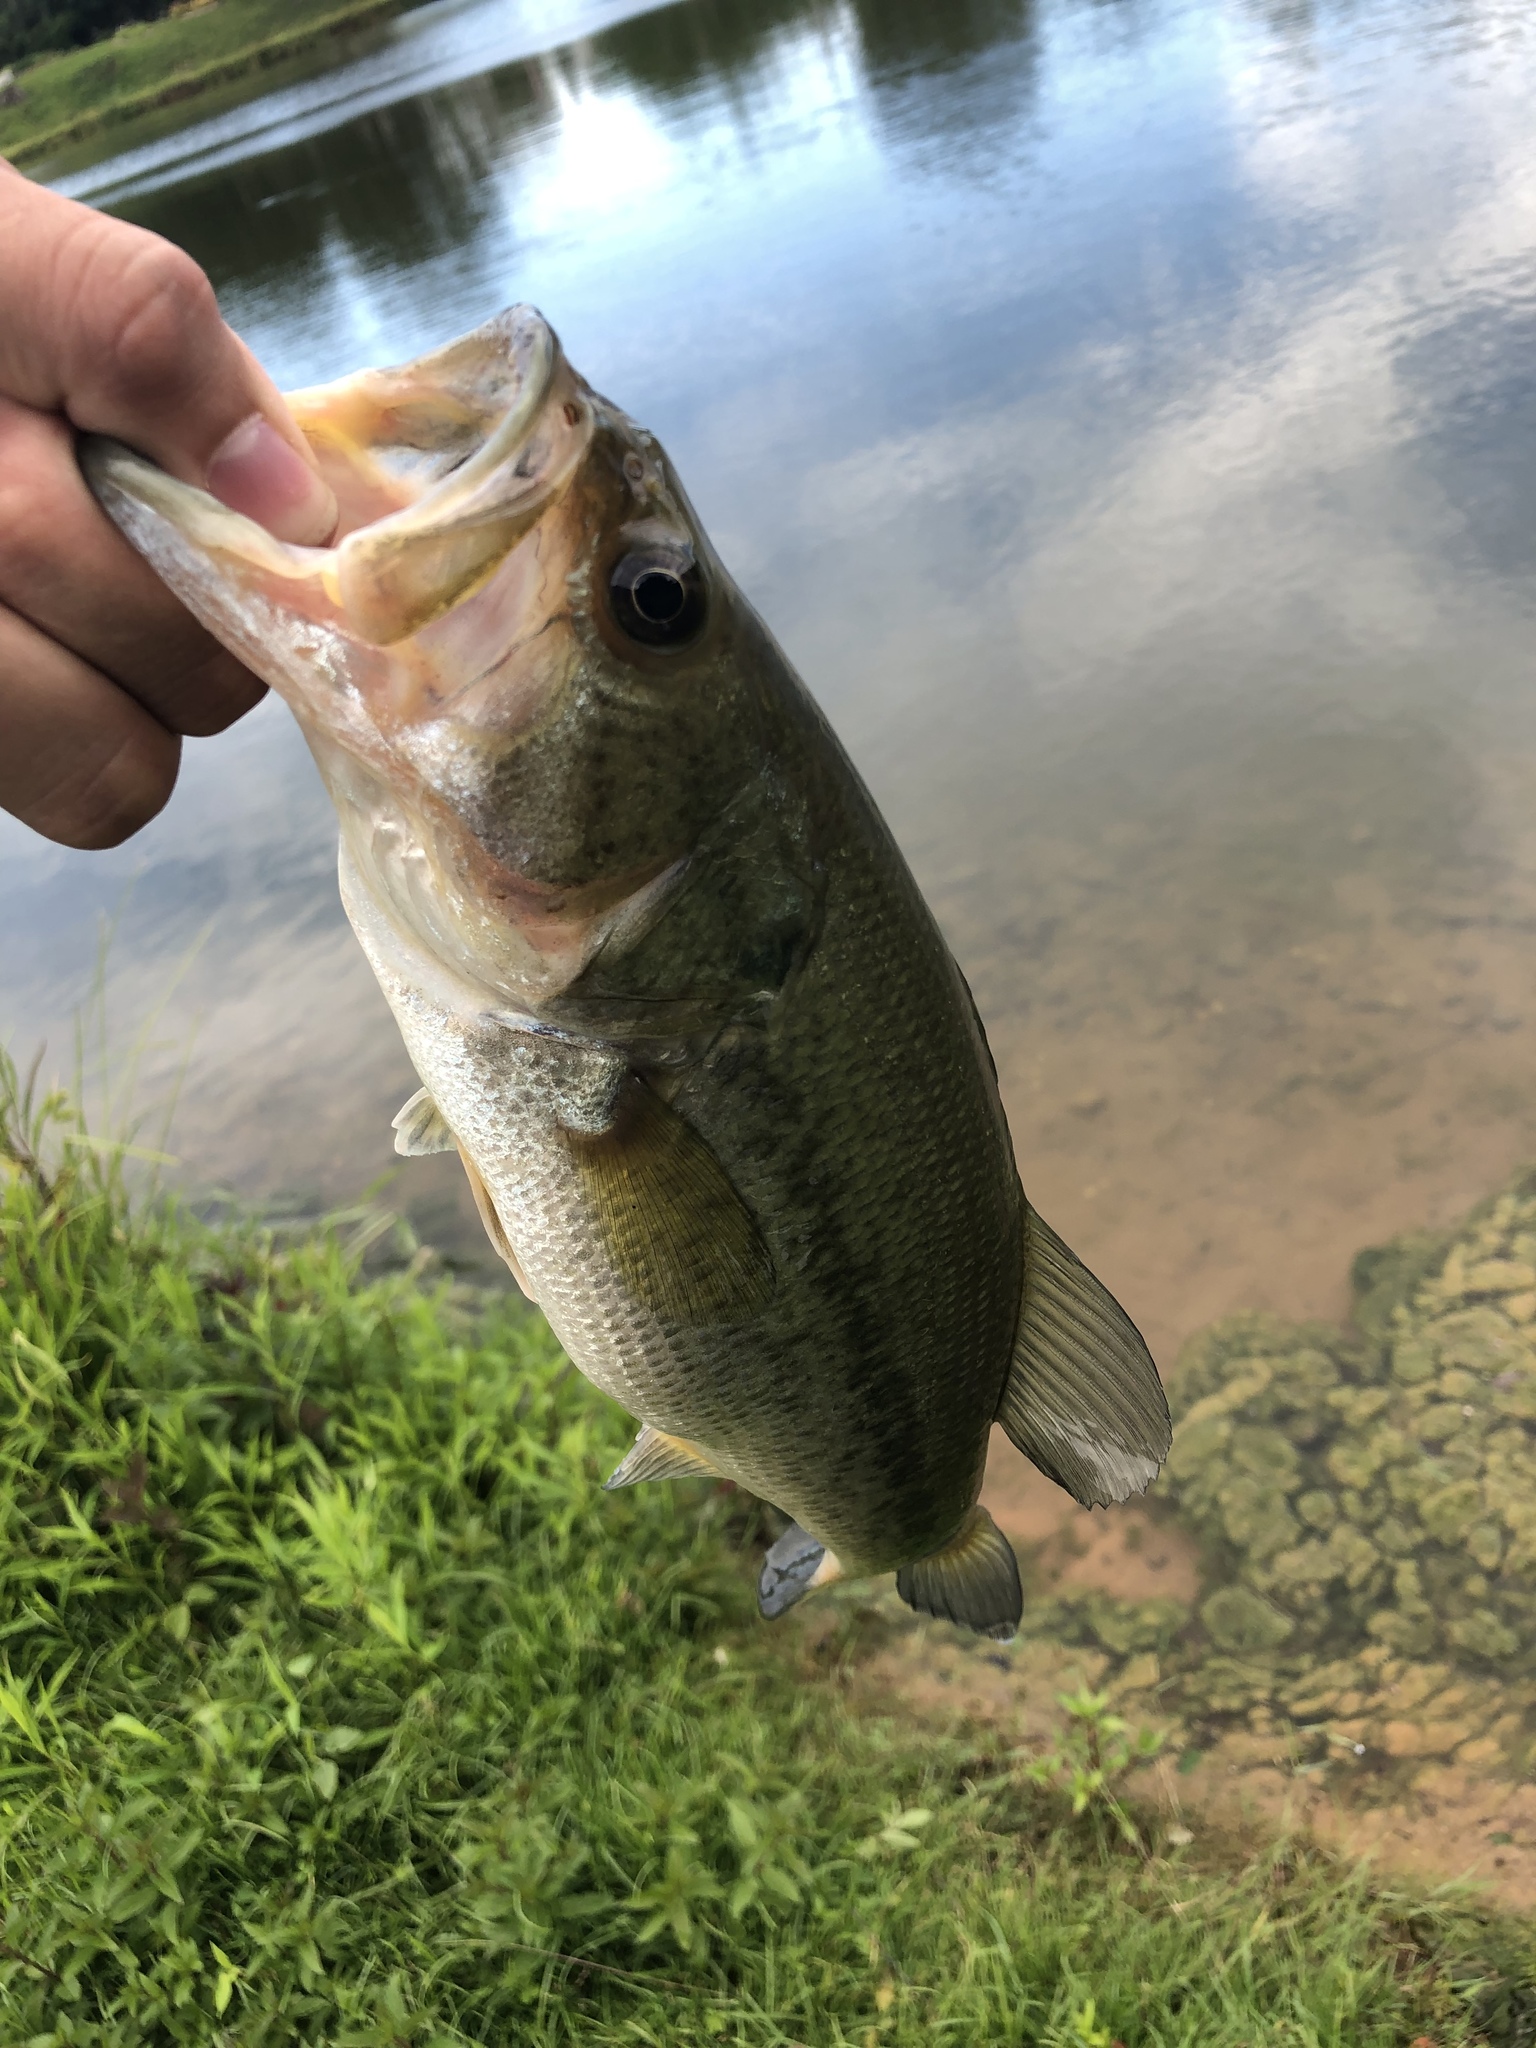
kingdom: Animalia
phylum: Chordata
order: Perciformes
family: Centrarchidae
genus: Micropterus
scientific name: Micropterus
